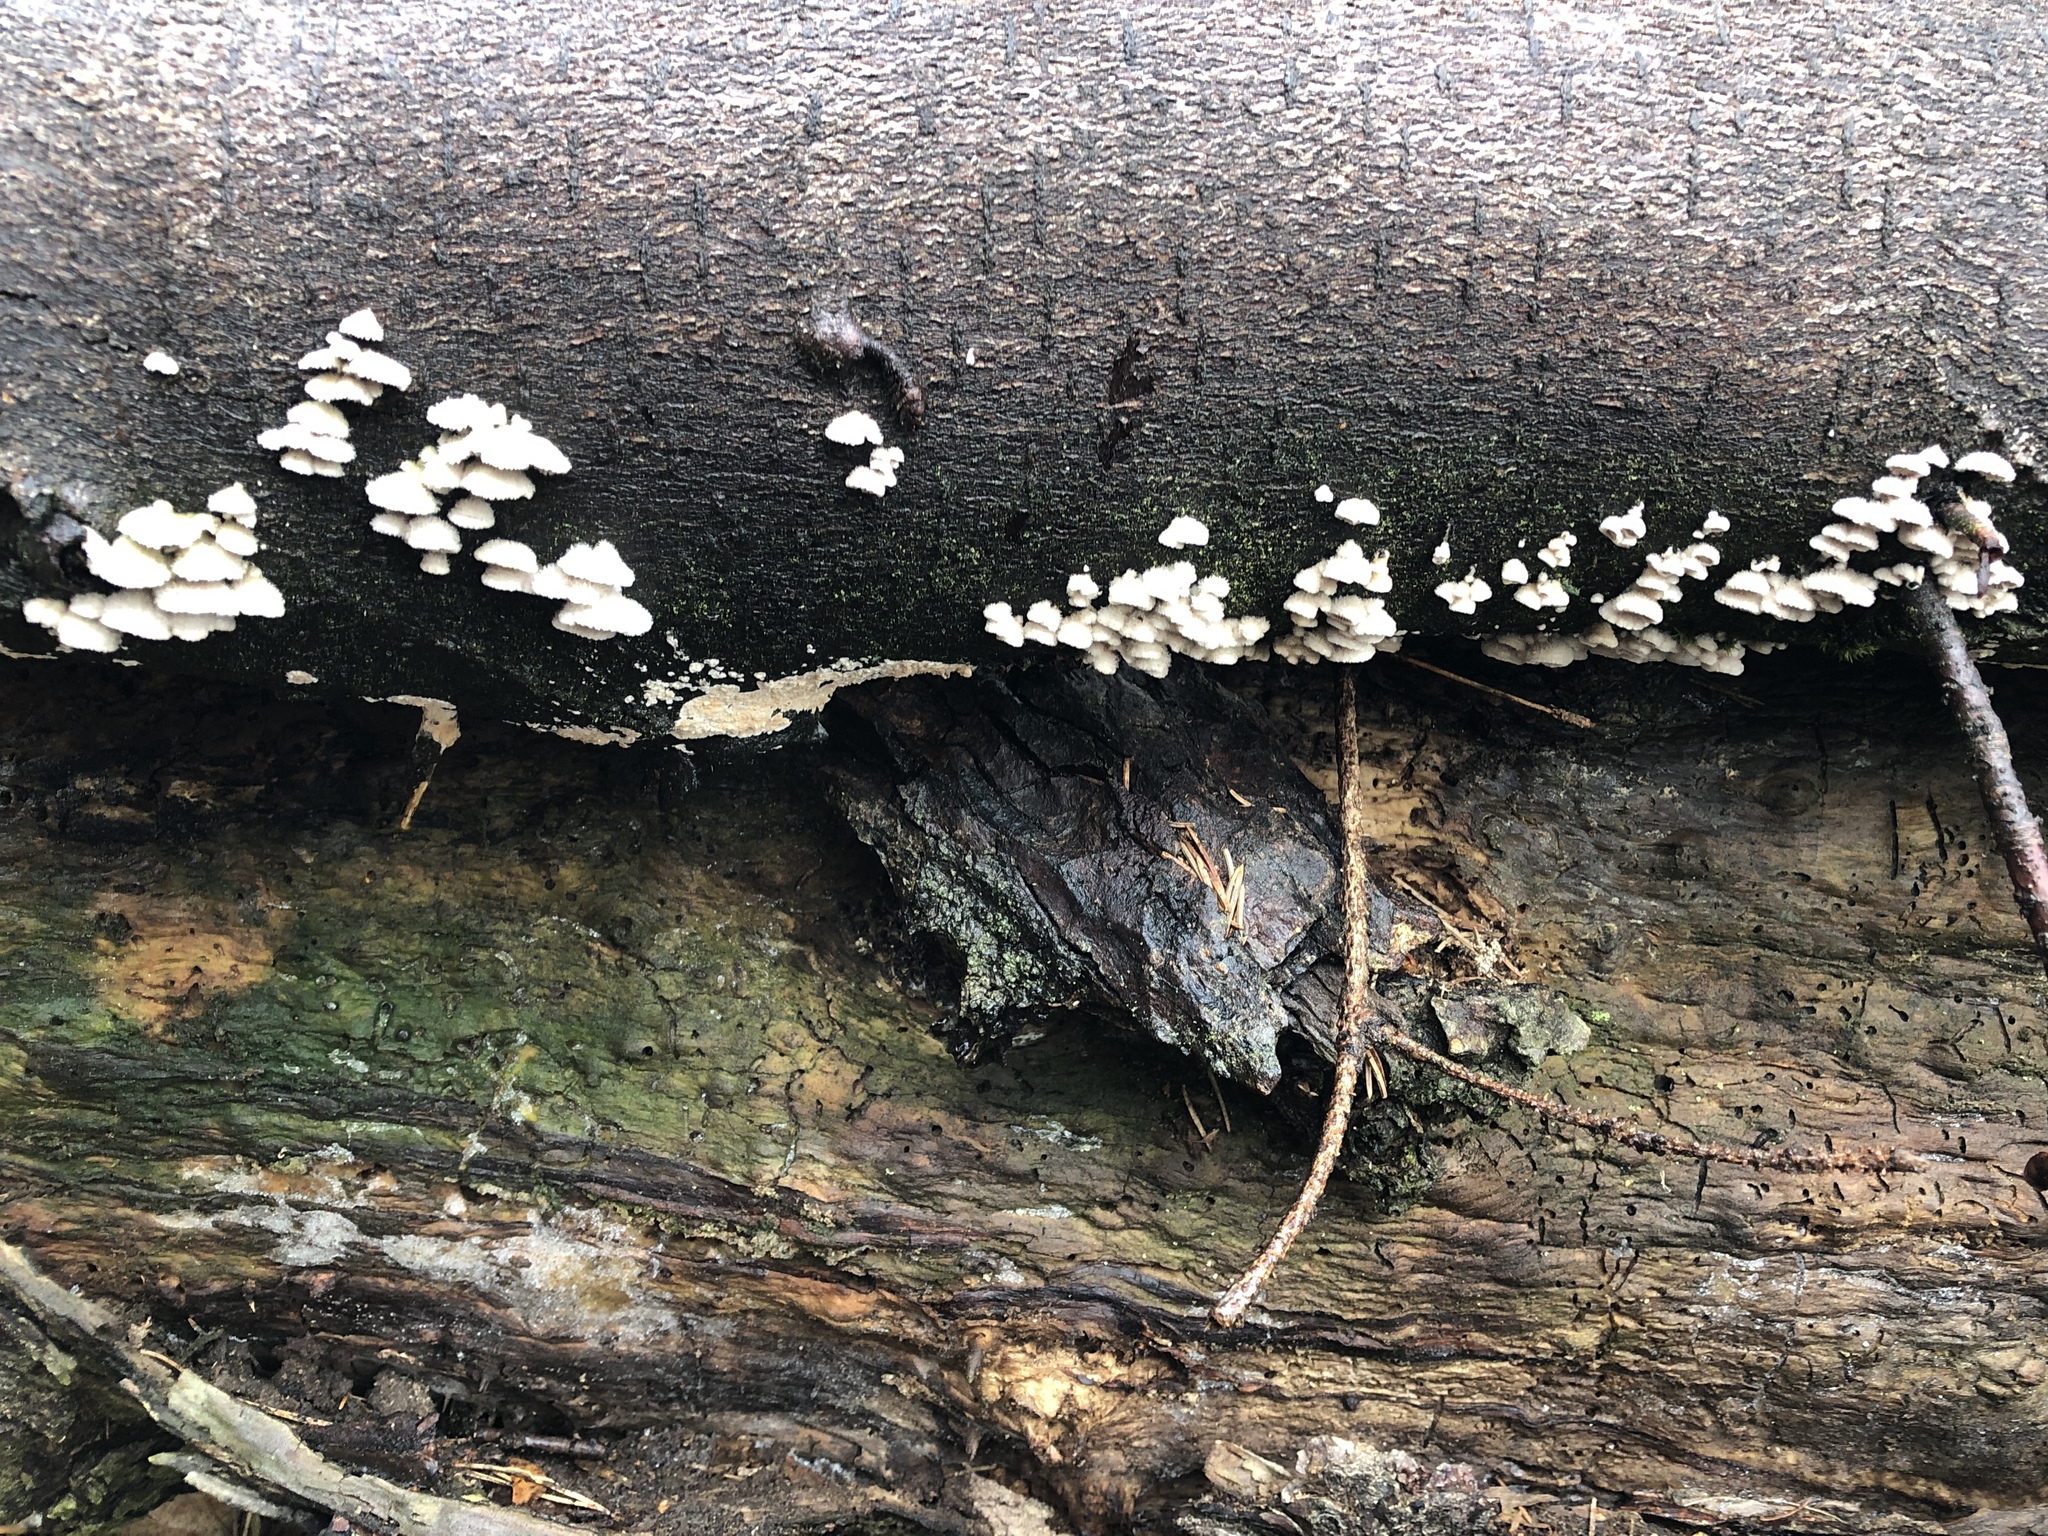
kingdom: Fungi
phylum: Basidiomycota
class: Agaricomycetes
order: Agaricales
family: Schizophyllaceae
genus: Schizophyllum
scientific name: Schizophyllum commune
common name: Common porecrust
